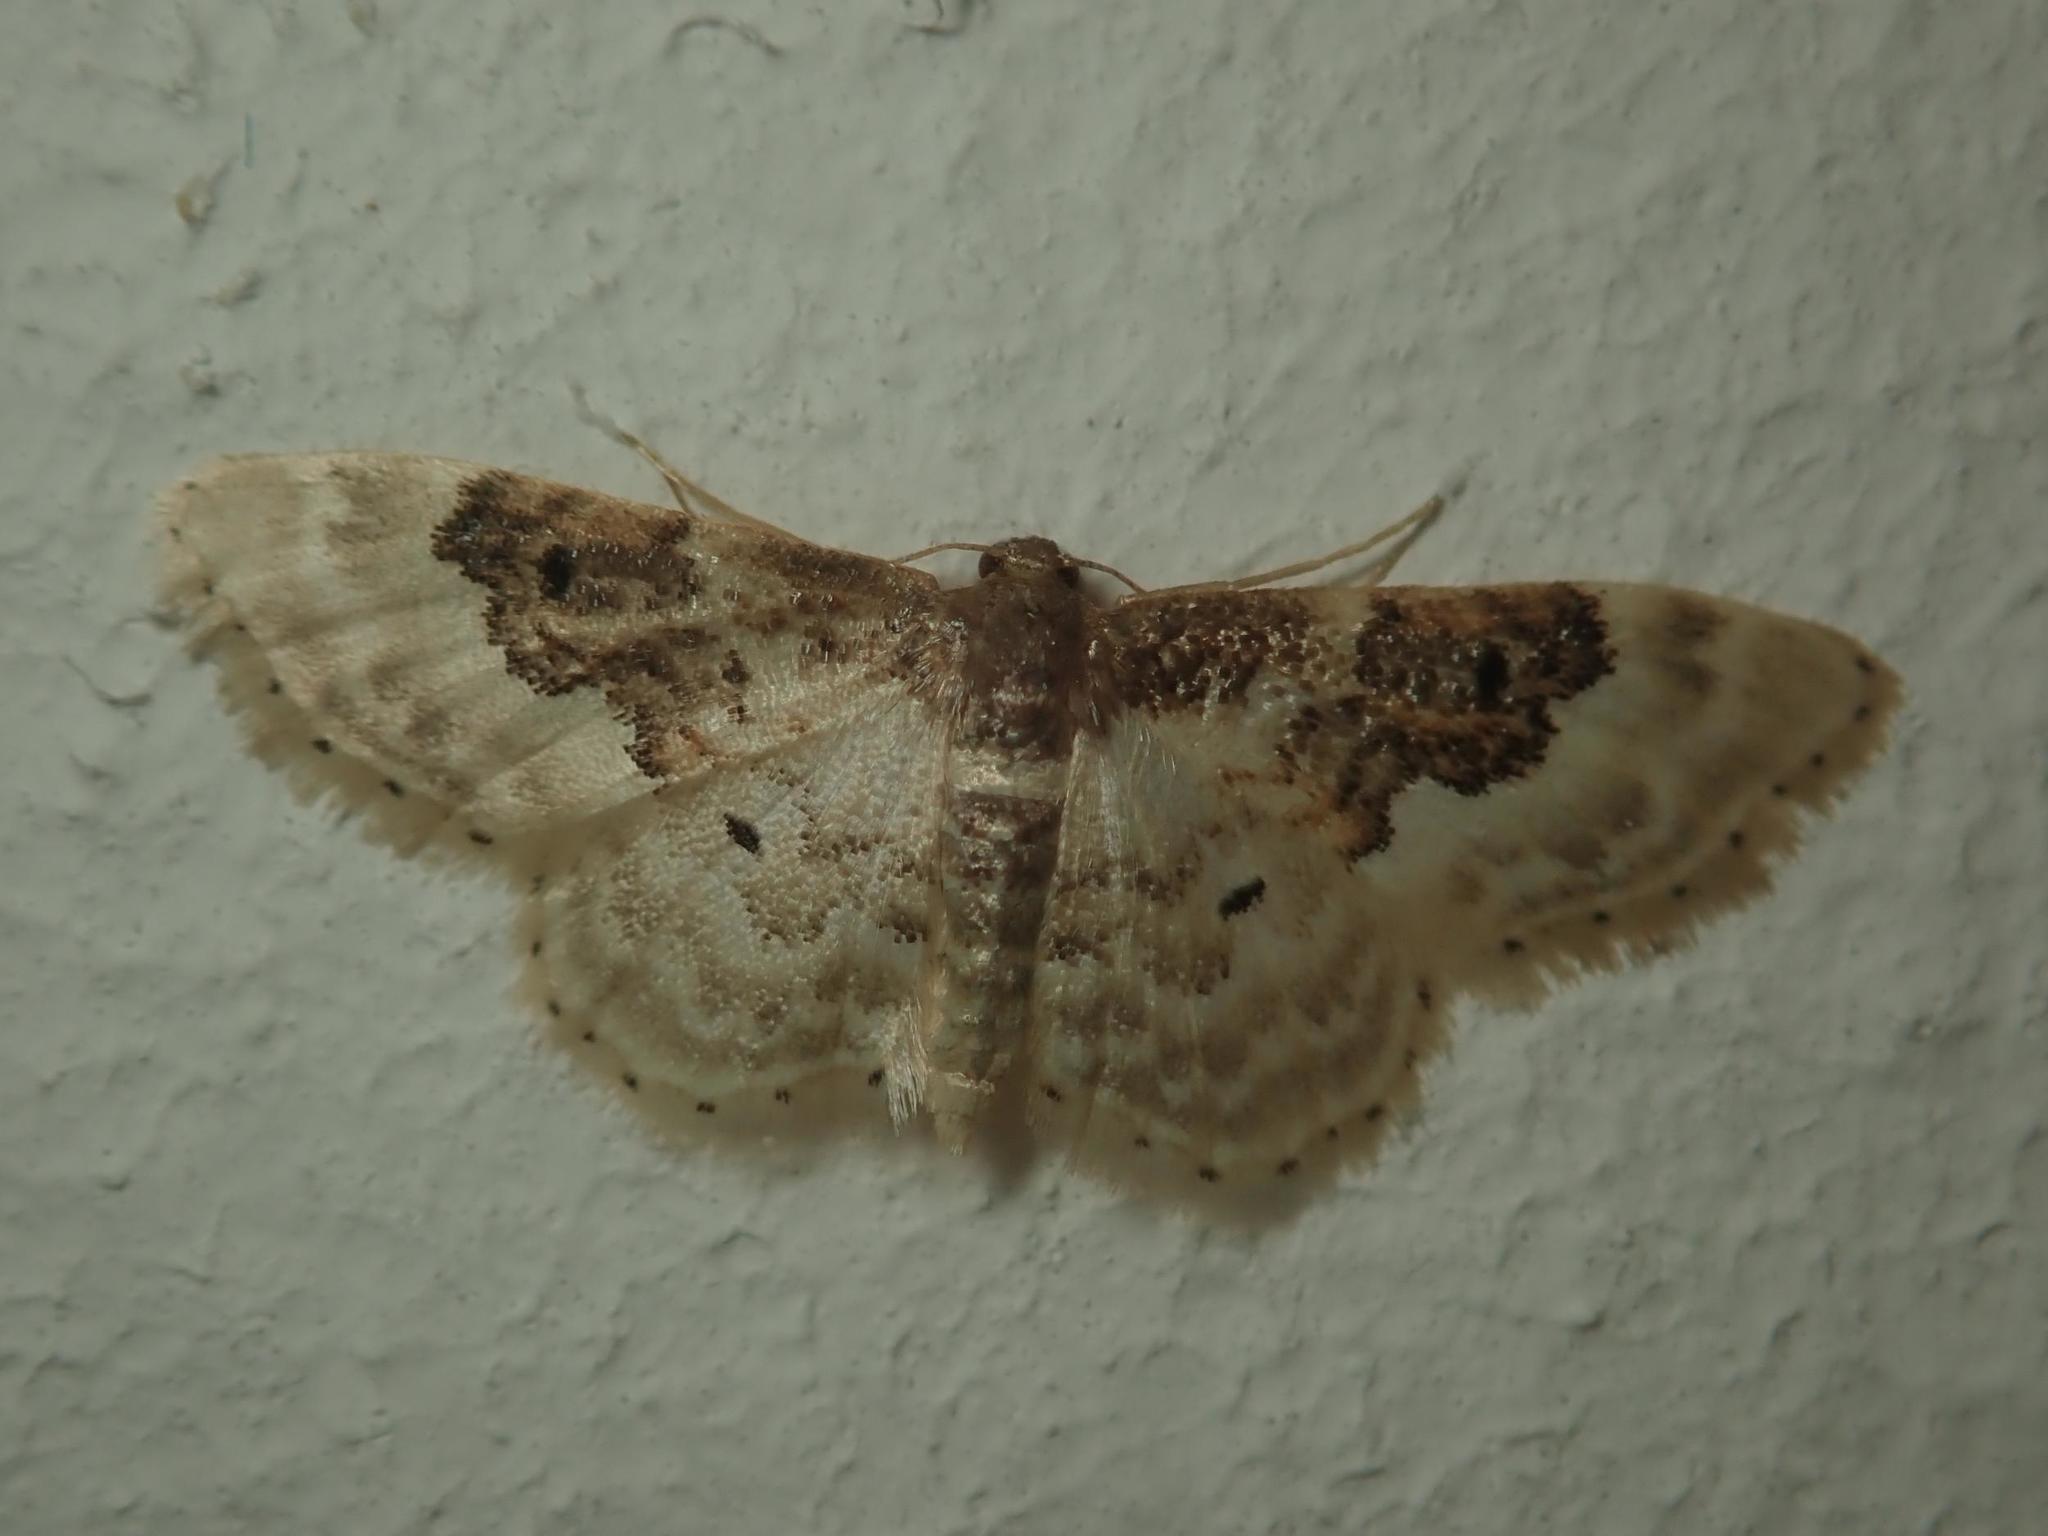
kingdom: Animalia
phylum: Arthropoda
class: Insecta
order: Lepidoptera
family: Geometridae
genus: Idaea
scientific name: Idaea rusticata
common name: Least carpet
